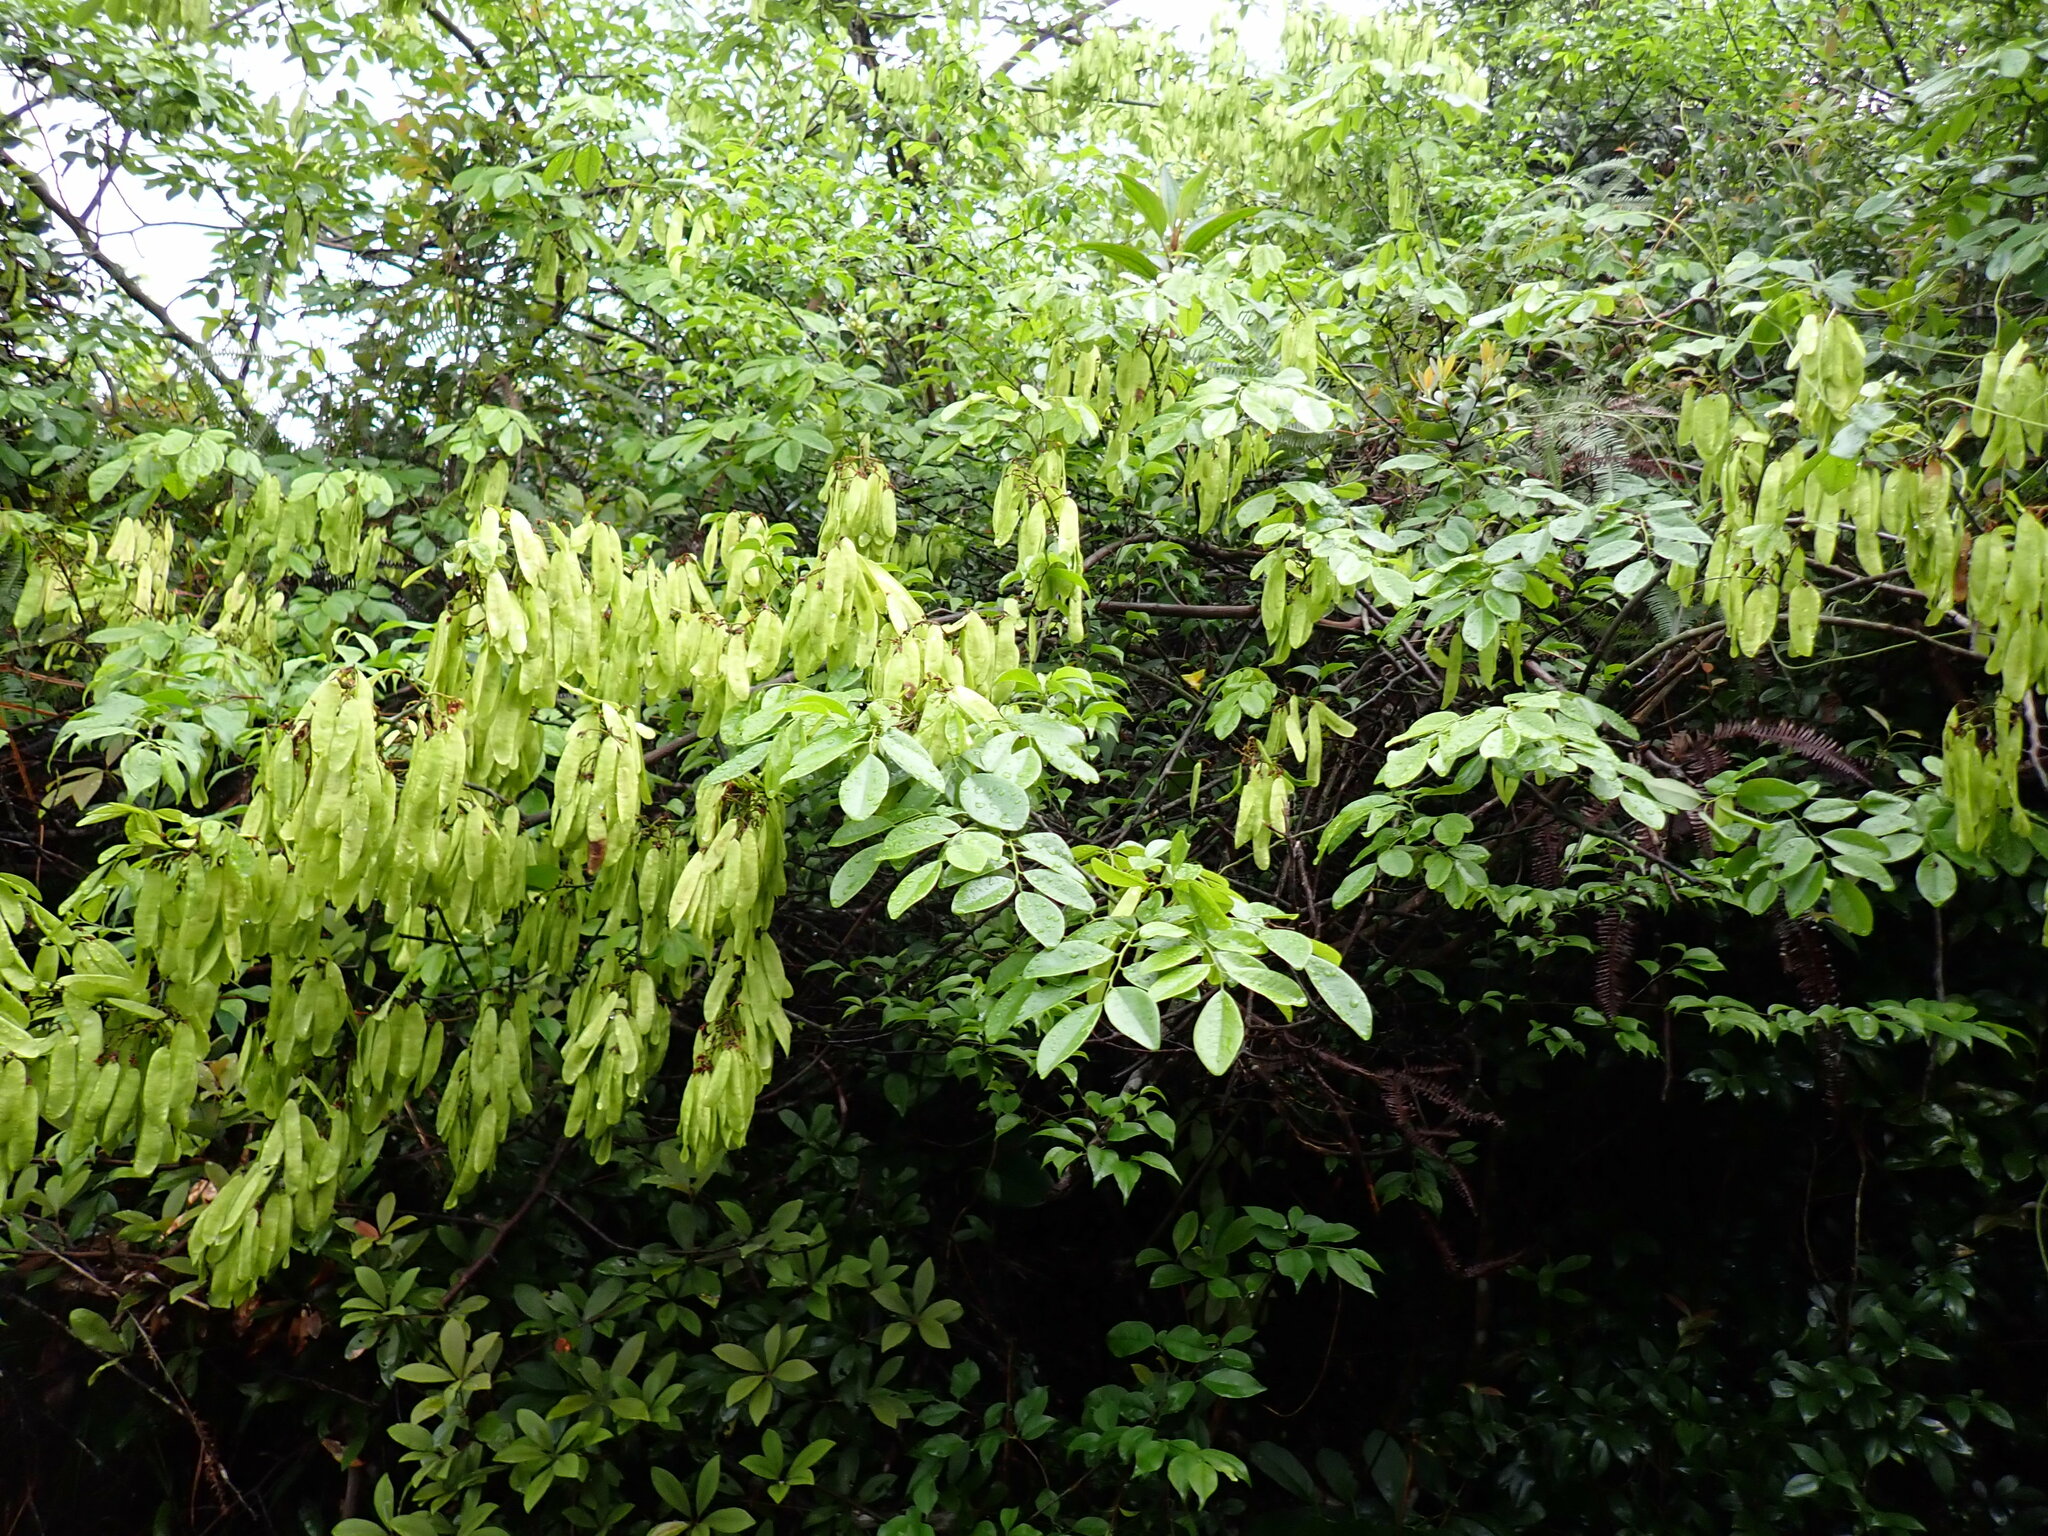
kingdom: Plantae
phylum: Tracheophyta
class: Magnoliopsida
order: Fabales
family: Fabaceae
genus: Dalbergia
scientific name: Dalbergia benthamii
